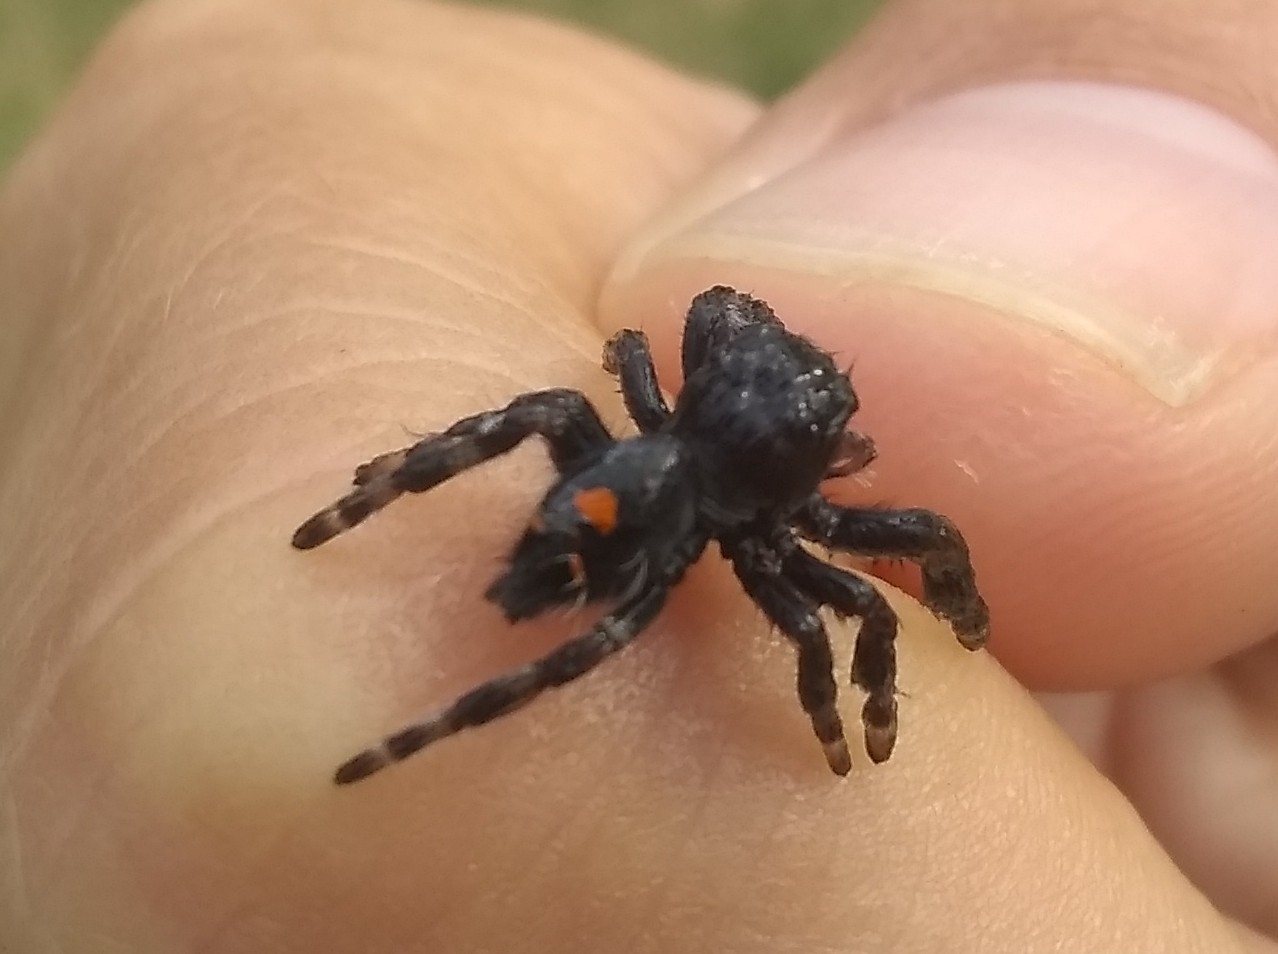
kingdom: Animalia
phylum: Arthropoda
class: Arachnida
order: Araneae
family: Salticidae
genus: Phidippus
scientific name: Phidippus audax
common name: Bold jumper
